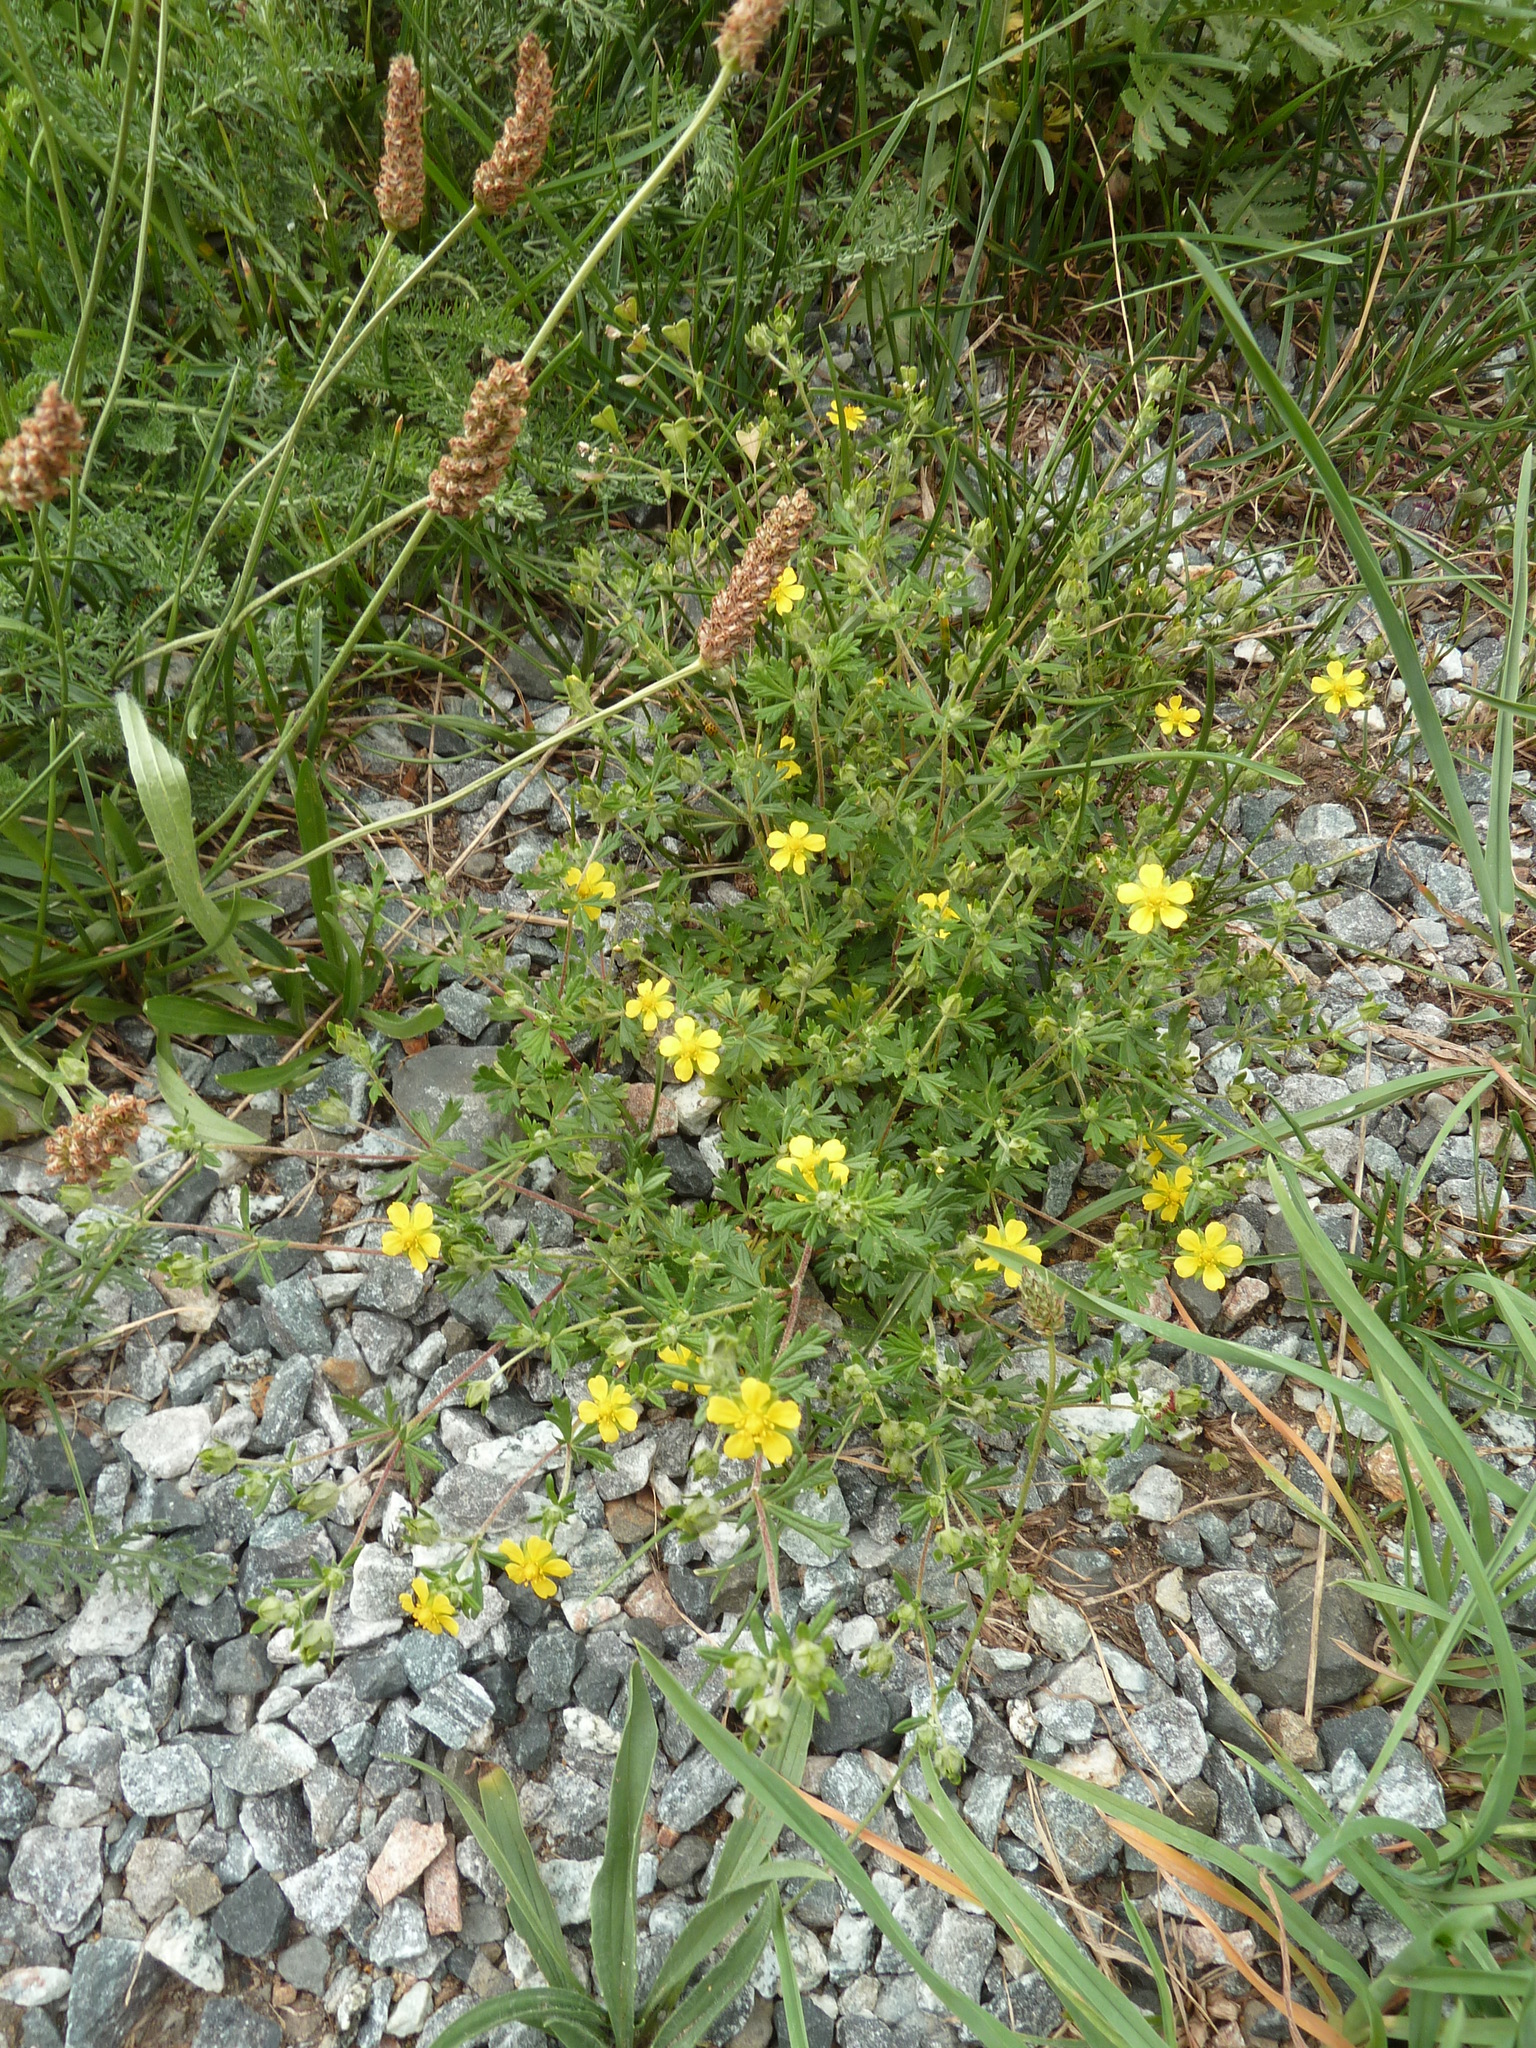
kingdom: Plantae
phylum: Tracheophyta
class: Magnoliopsida
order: Rosales
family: Rosaceae
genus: Potentilla
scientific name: Potentilla argentea
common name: Hoary cinquefoil
